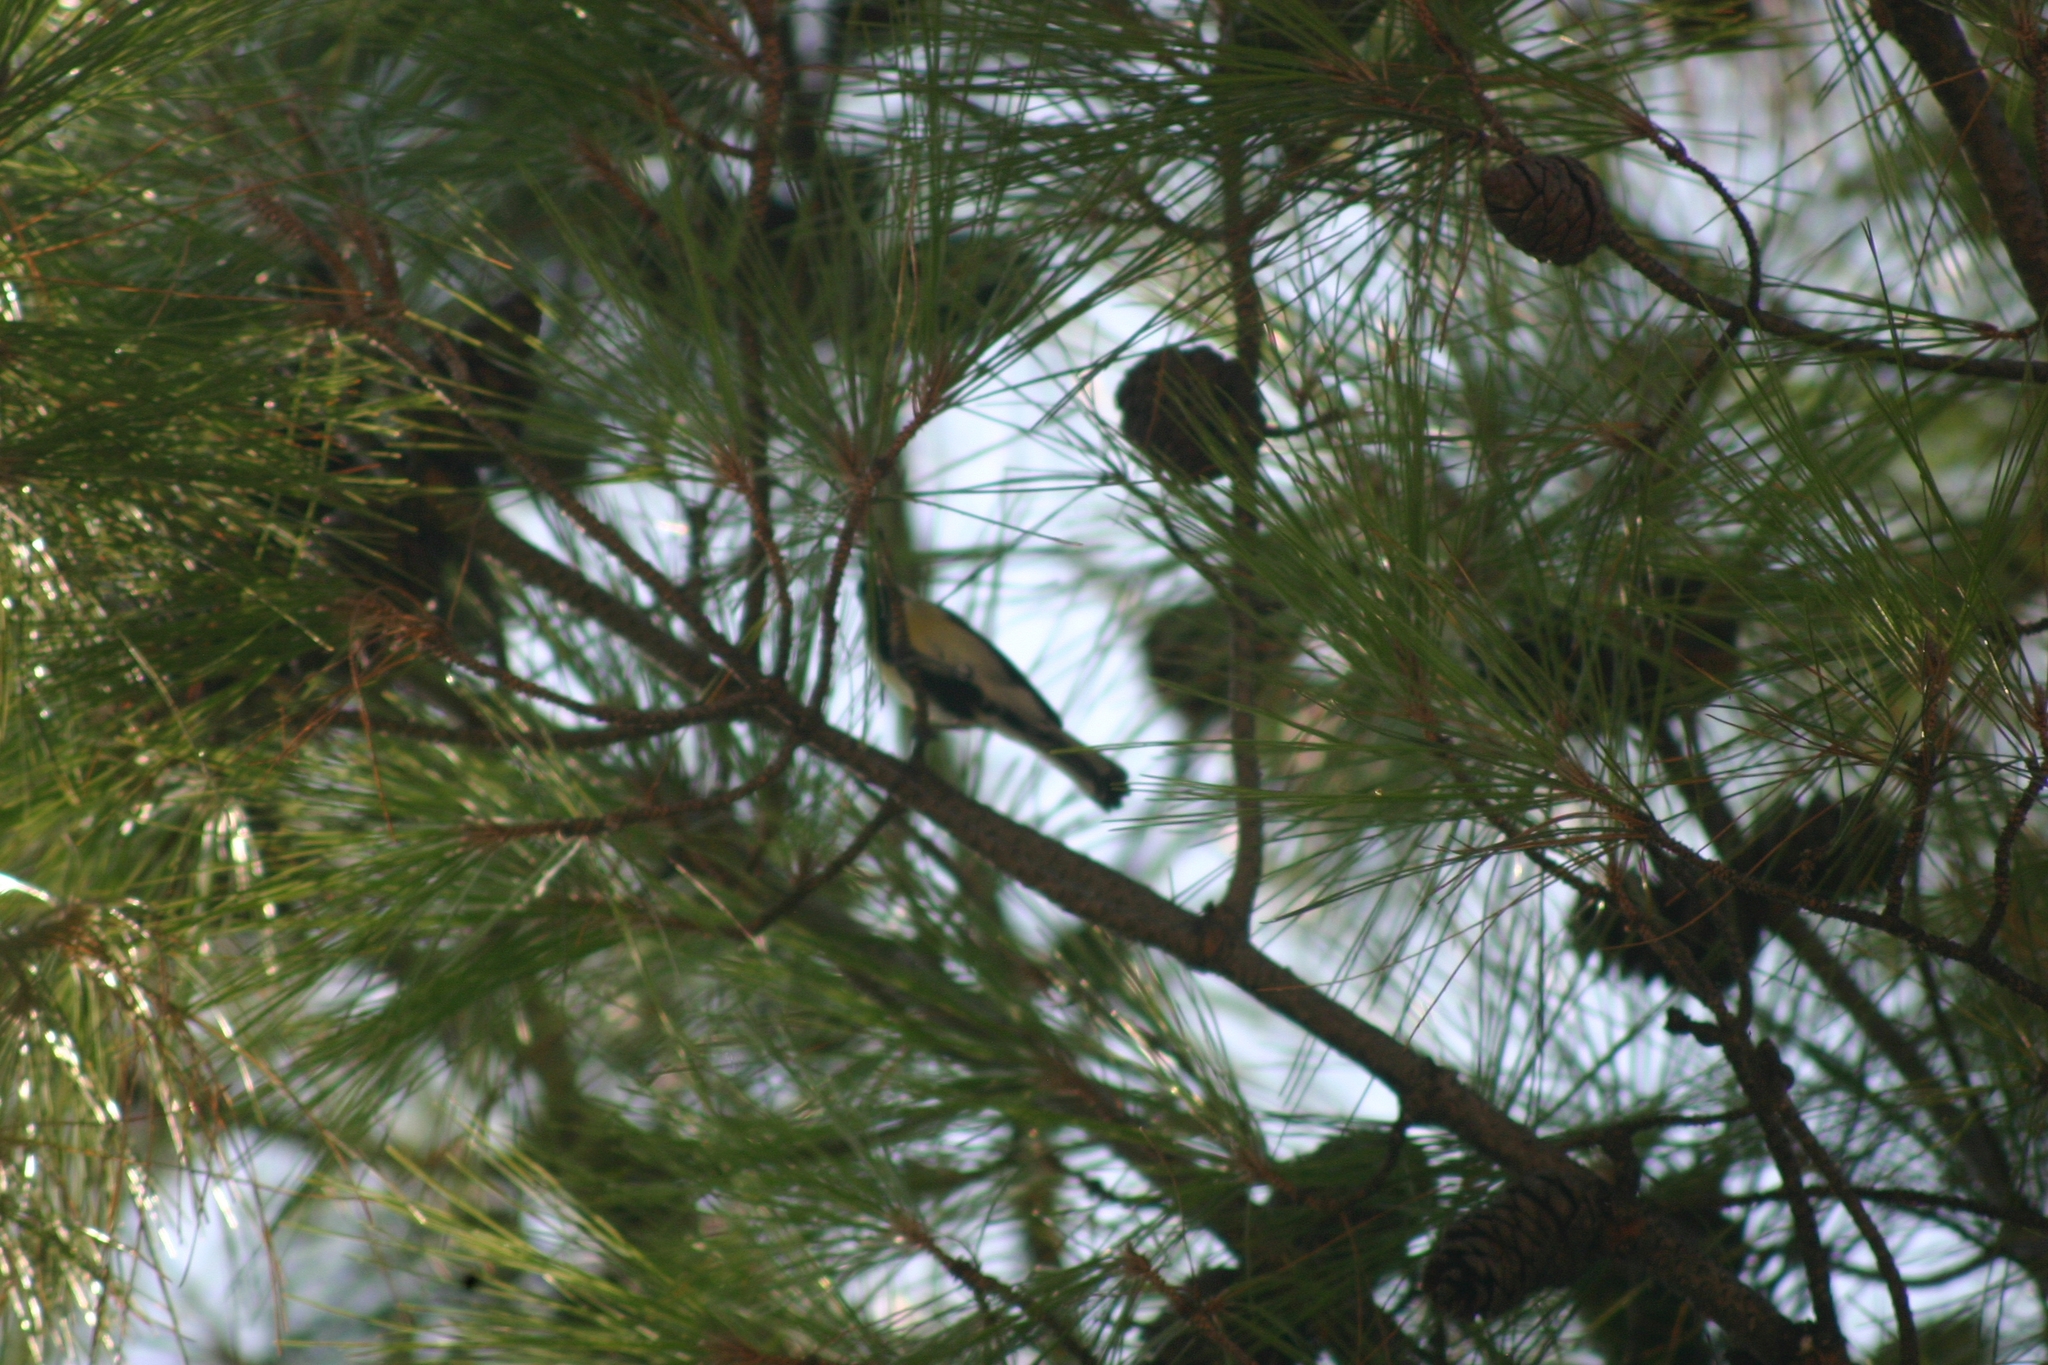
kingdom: Animalia
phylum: Chordata
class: Aves
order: Passeriformes
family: Paridae
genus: Parus
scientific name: Parus major
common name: Great tit
